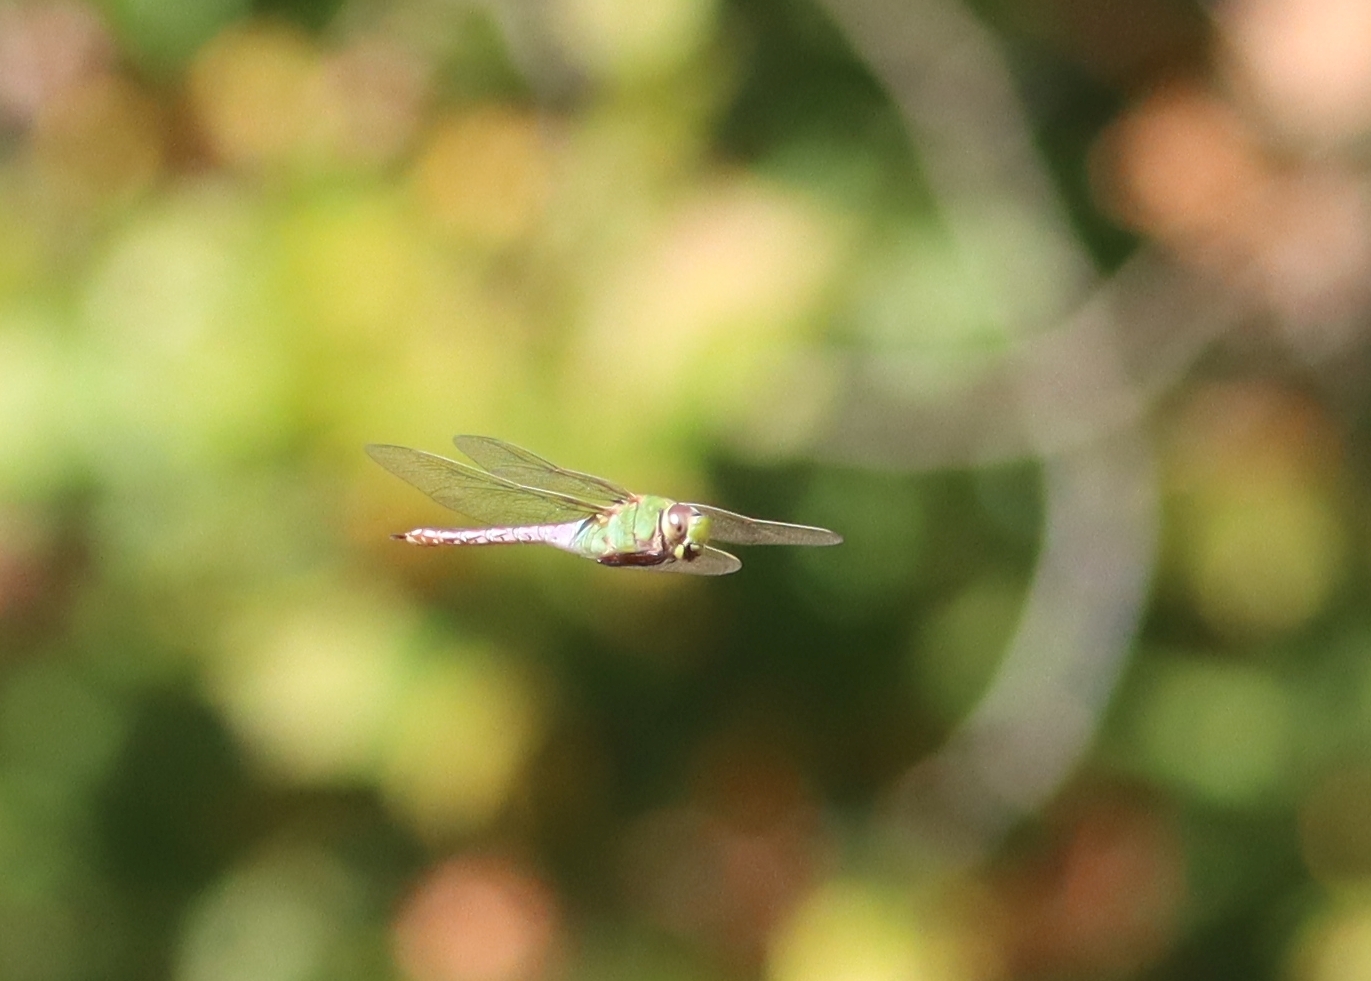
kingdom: Animalia
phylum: Arthropoda
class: Insecta
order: Odonata
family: Aeshnidae
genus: Anax
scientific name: Anax junius
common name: Common green darner
